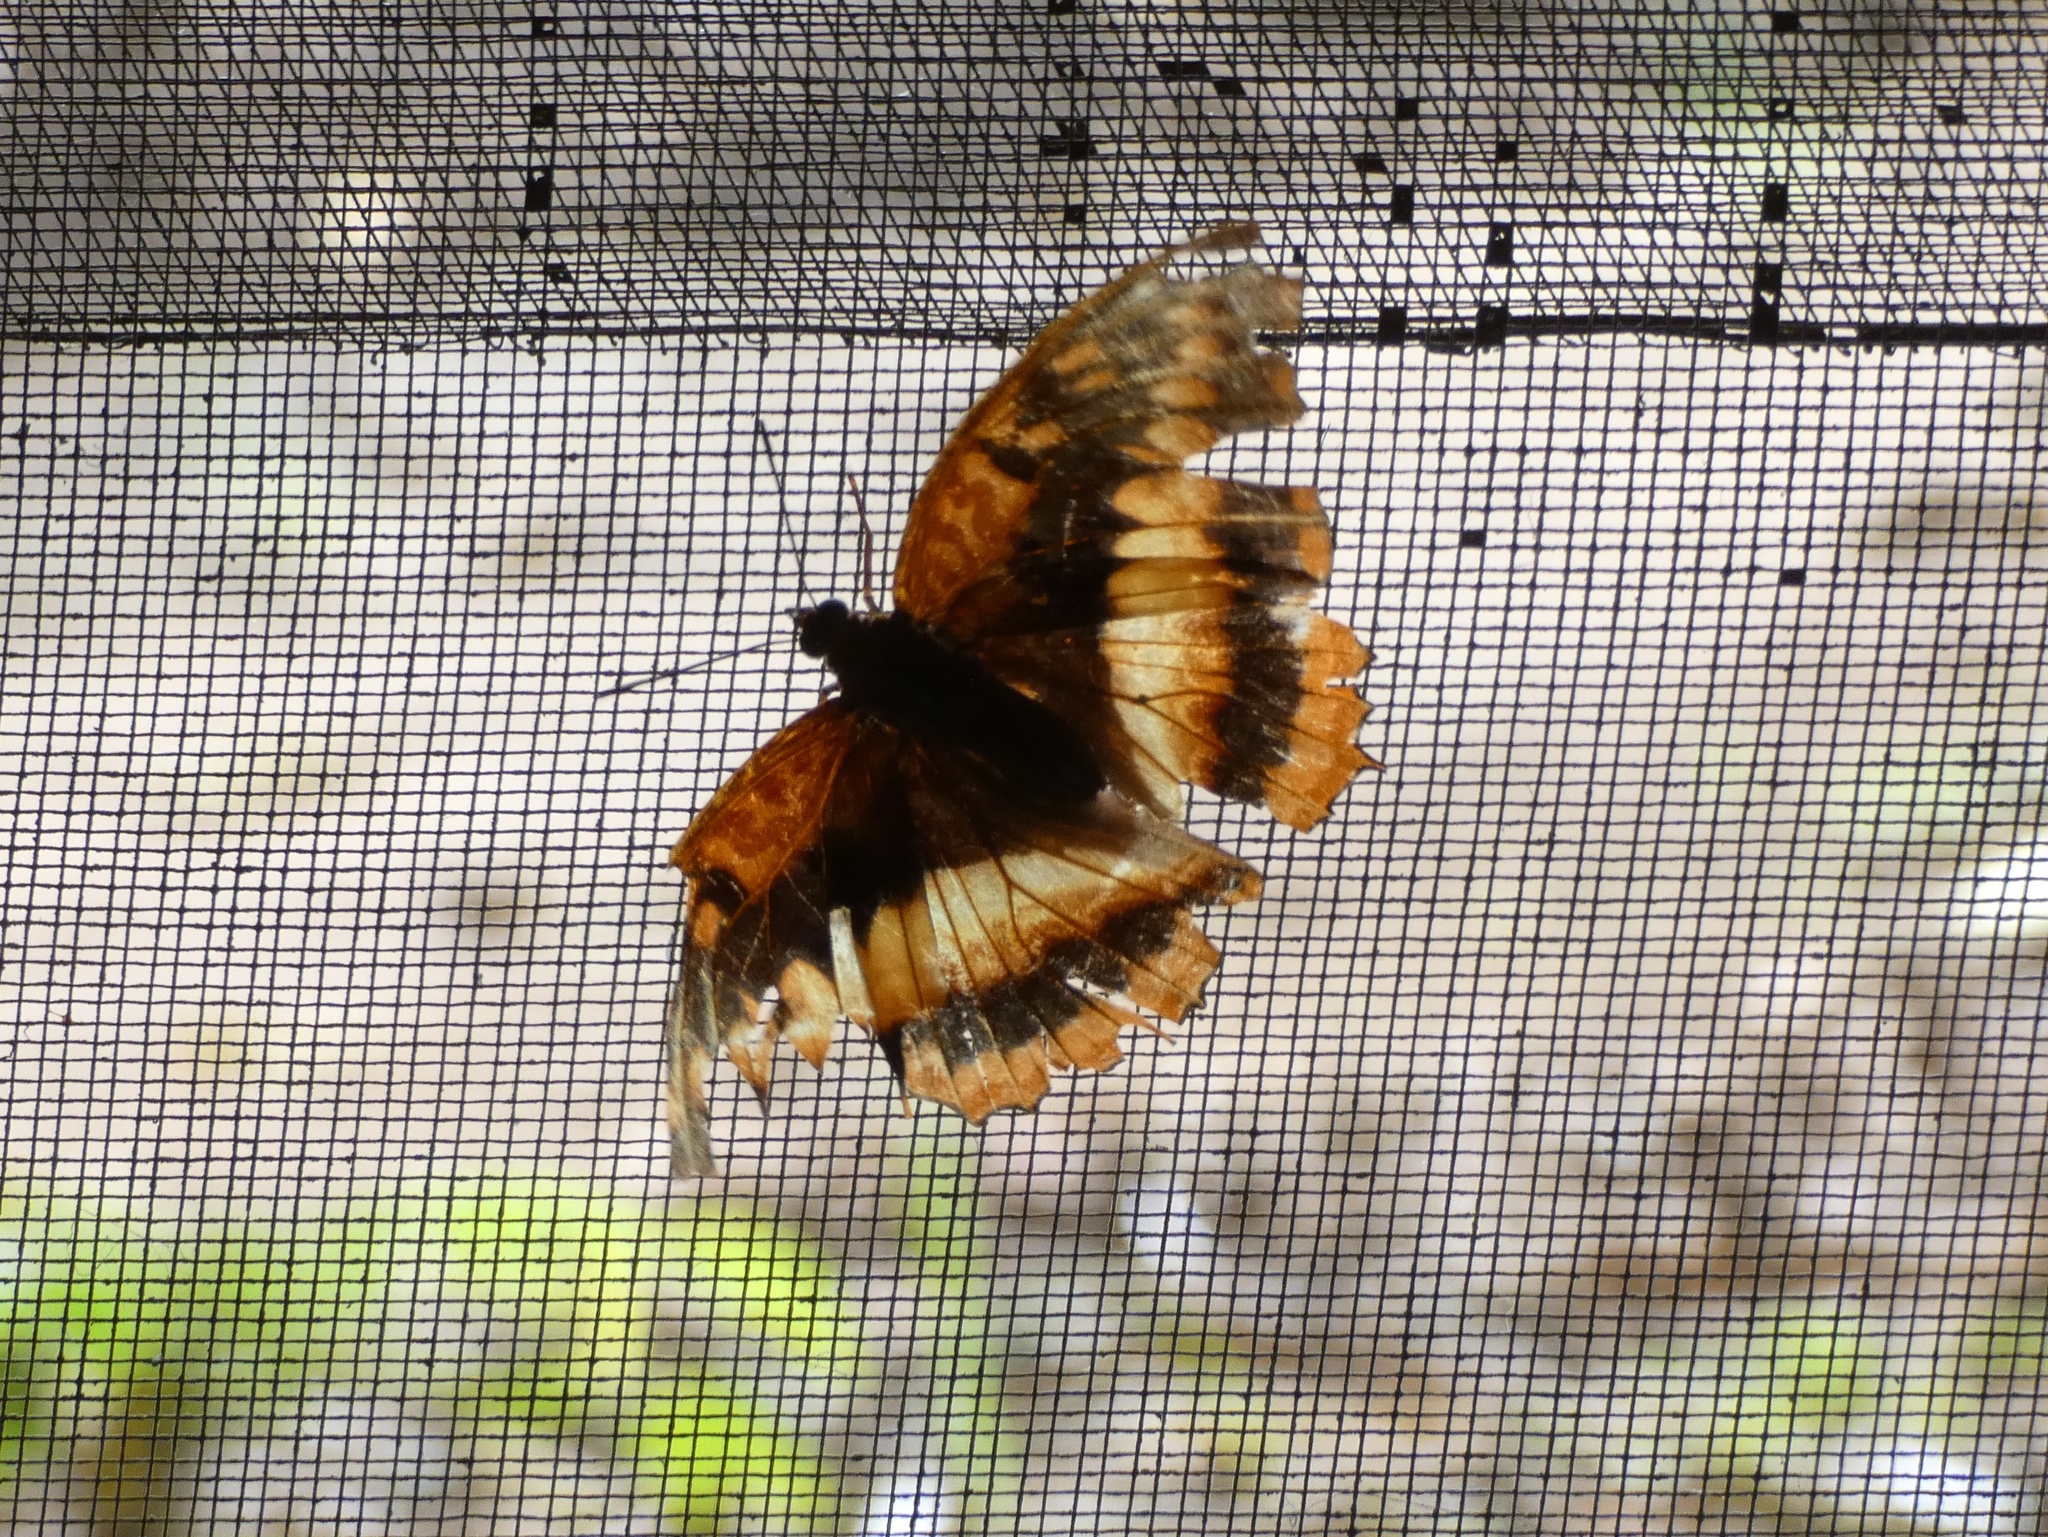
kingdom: Animalia
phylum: Arthropoda
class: Insecta
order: Lepidoptera
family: Nymphalidae
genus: Charaxes
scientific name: Charaxes cynthia
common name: Western red charaxes
